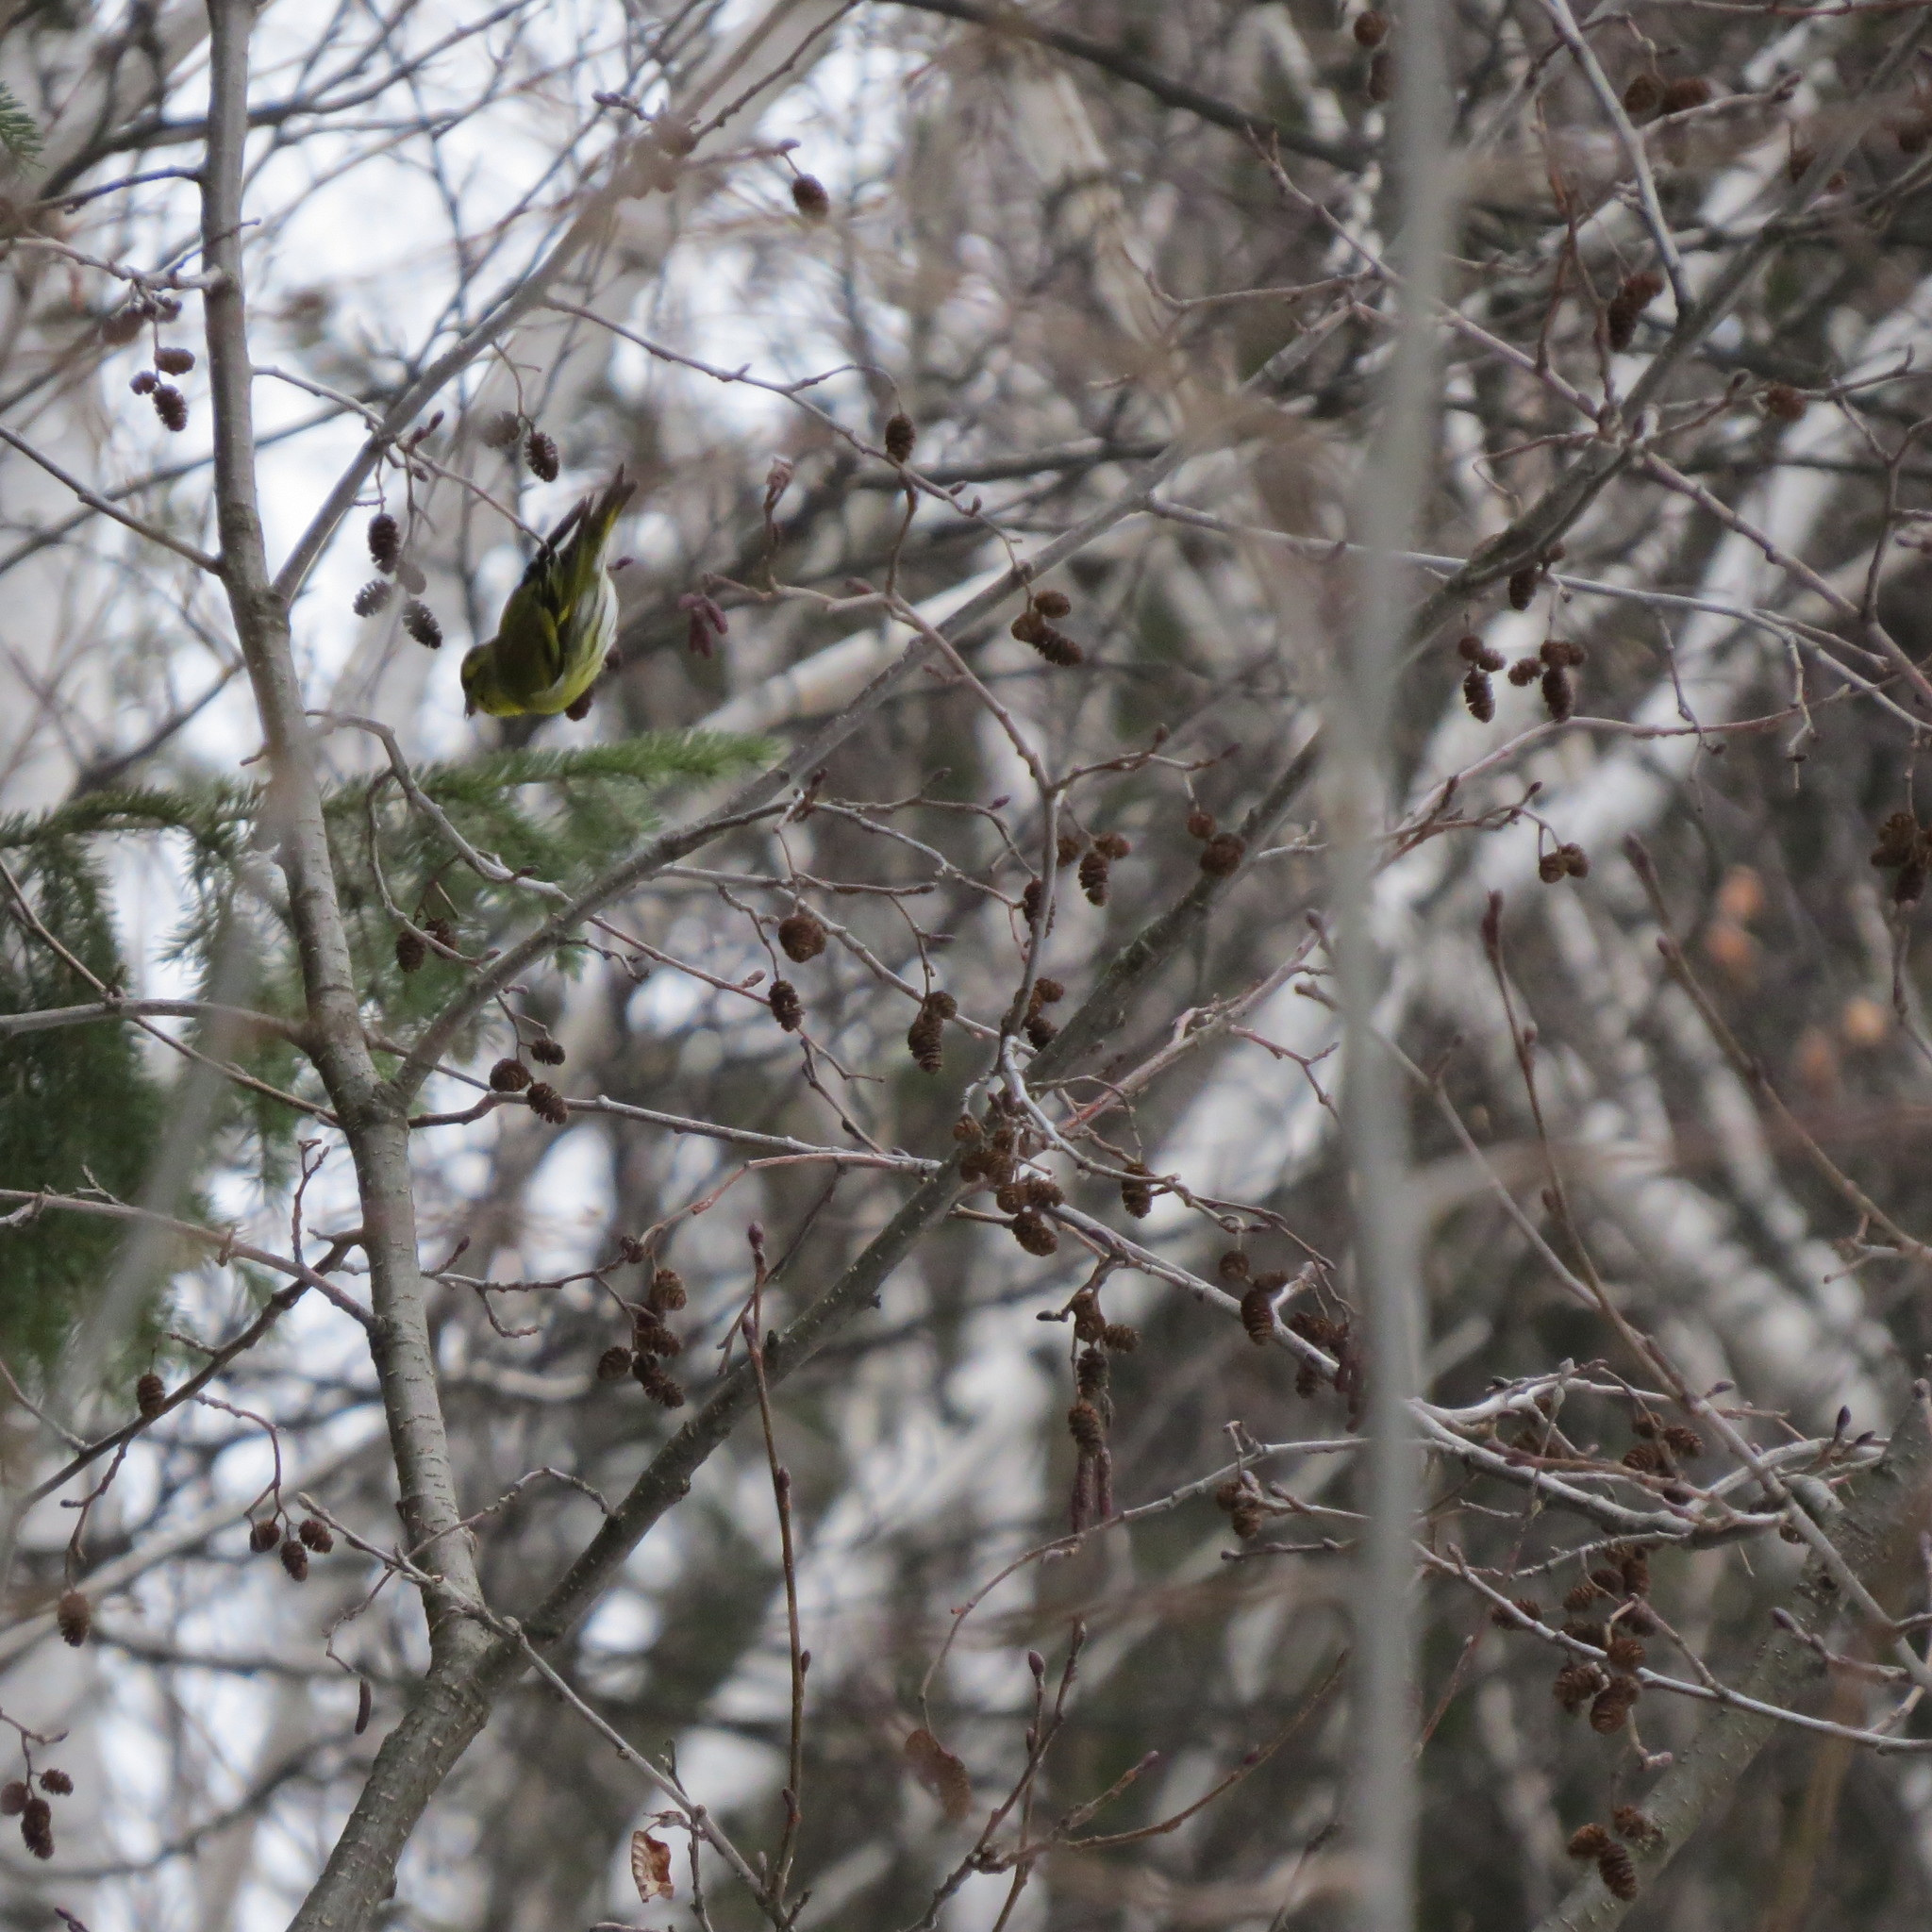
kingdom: Animalia
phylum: Chordata
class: Aves
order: Passeriformes
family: Fringillidae
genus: Spinus
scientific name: Spinus spinus
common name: Eurasian siskin
